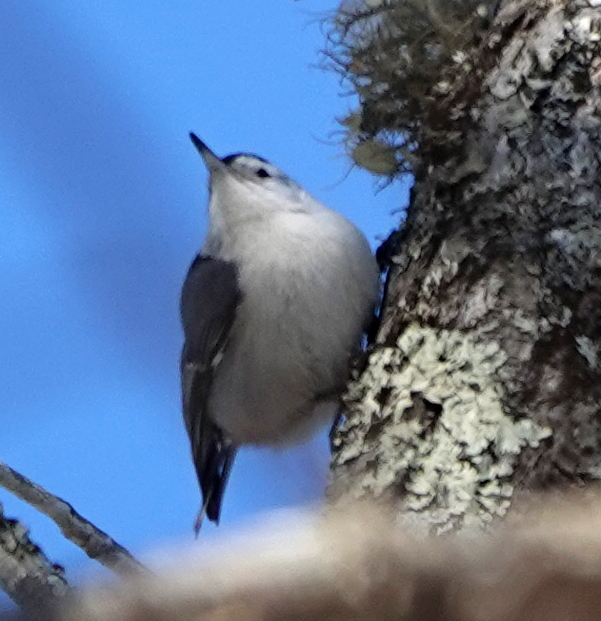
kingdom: Animalia
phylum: Chordata
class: Aves
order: Passeriformes
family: Sittidae
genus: Sitta
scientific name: Sitta carolinensis
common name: White-breasted nuthatch
